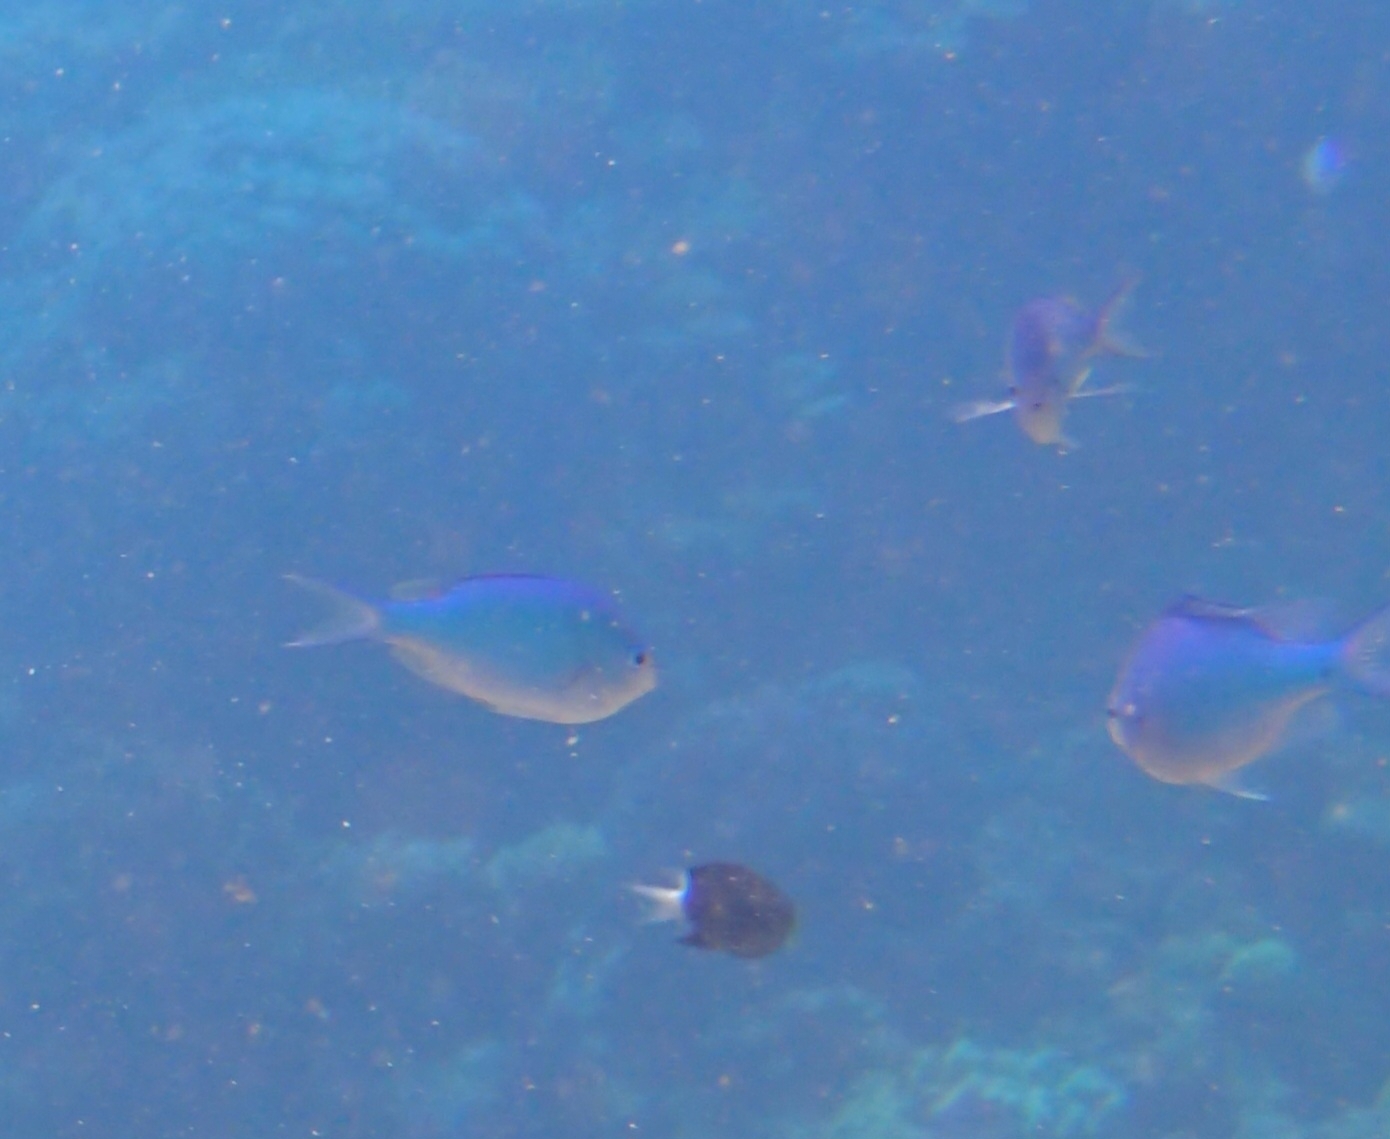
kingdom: Animalia
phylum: Chordata
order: Perciformes
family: Pomacentridae
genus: Chromis
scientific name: Chromis viridis
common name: Blue-green chromis
